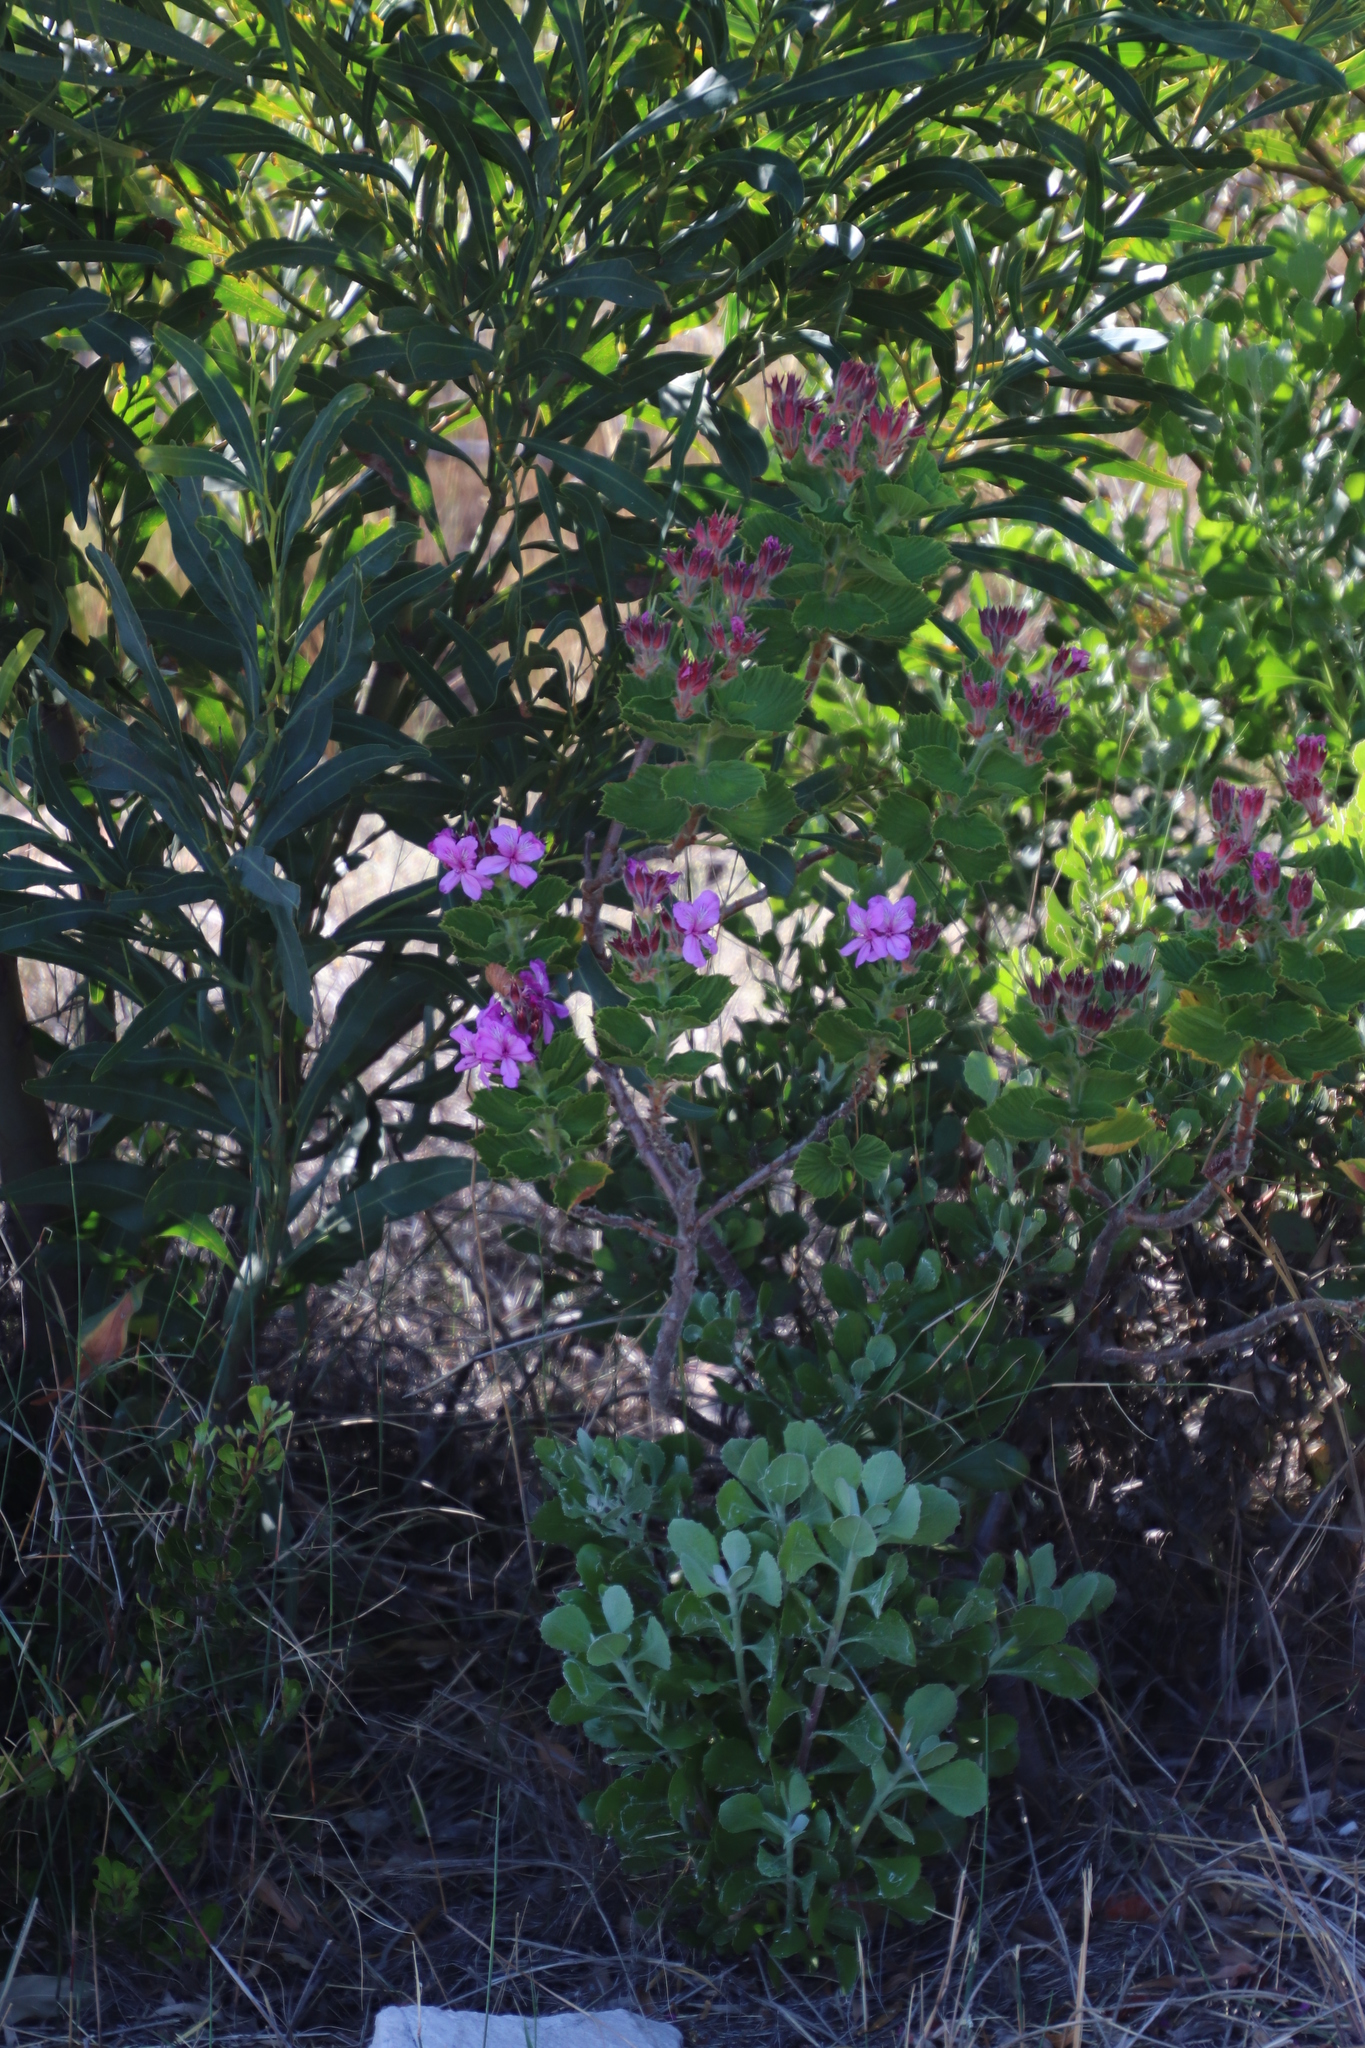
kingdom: Plantae
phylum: Tracheophyta
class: Magnoliopsida
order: Geraniales
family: Geraniaceae
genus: Pelargonium
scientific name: Pelargonium cucullatum
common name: Tree pelargonium
